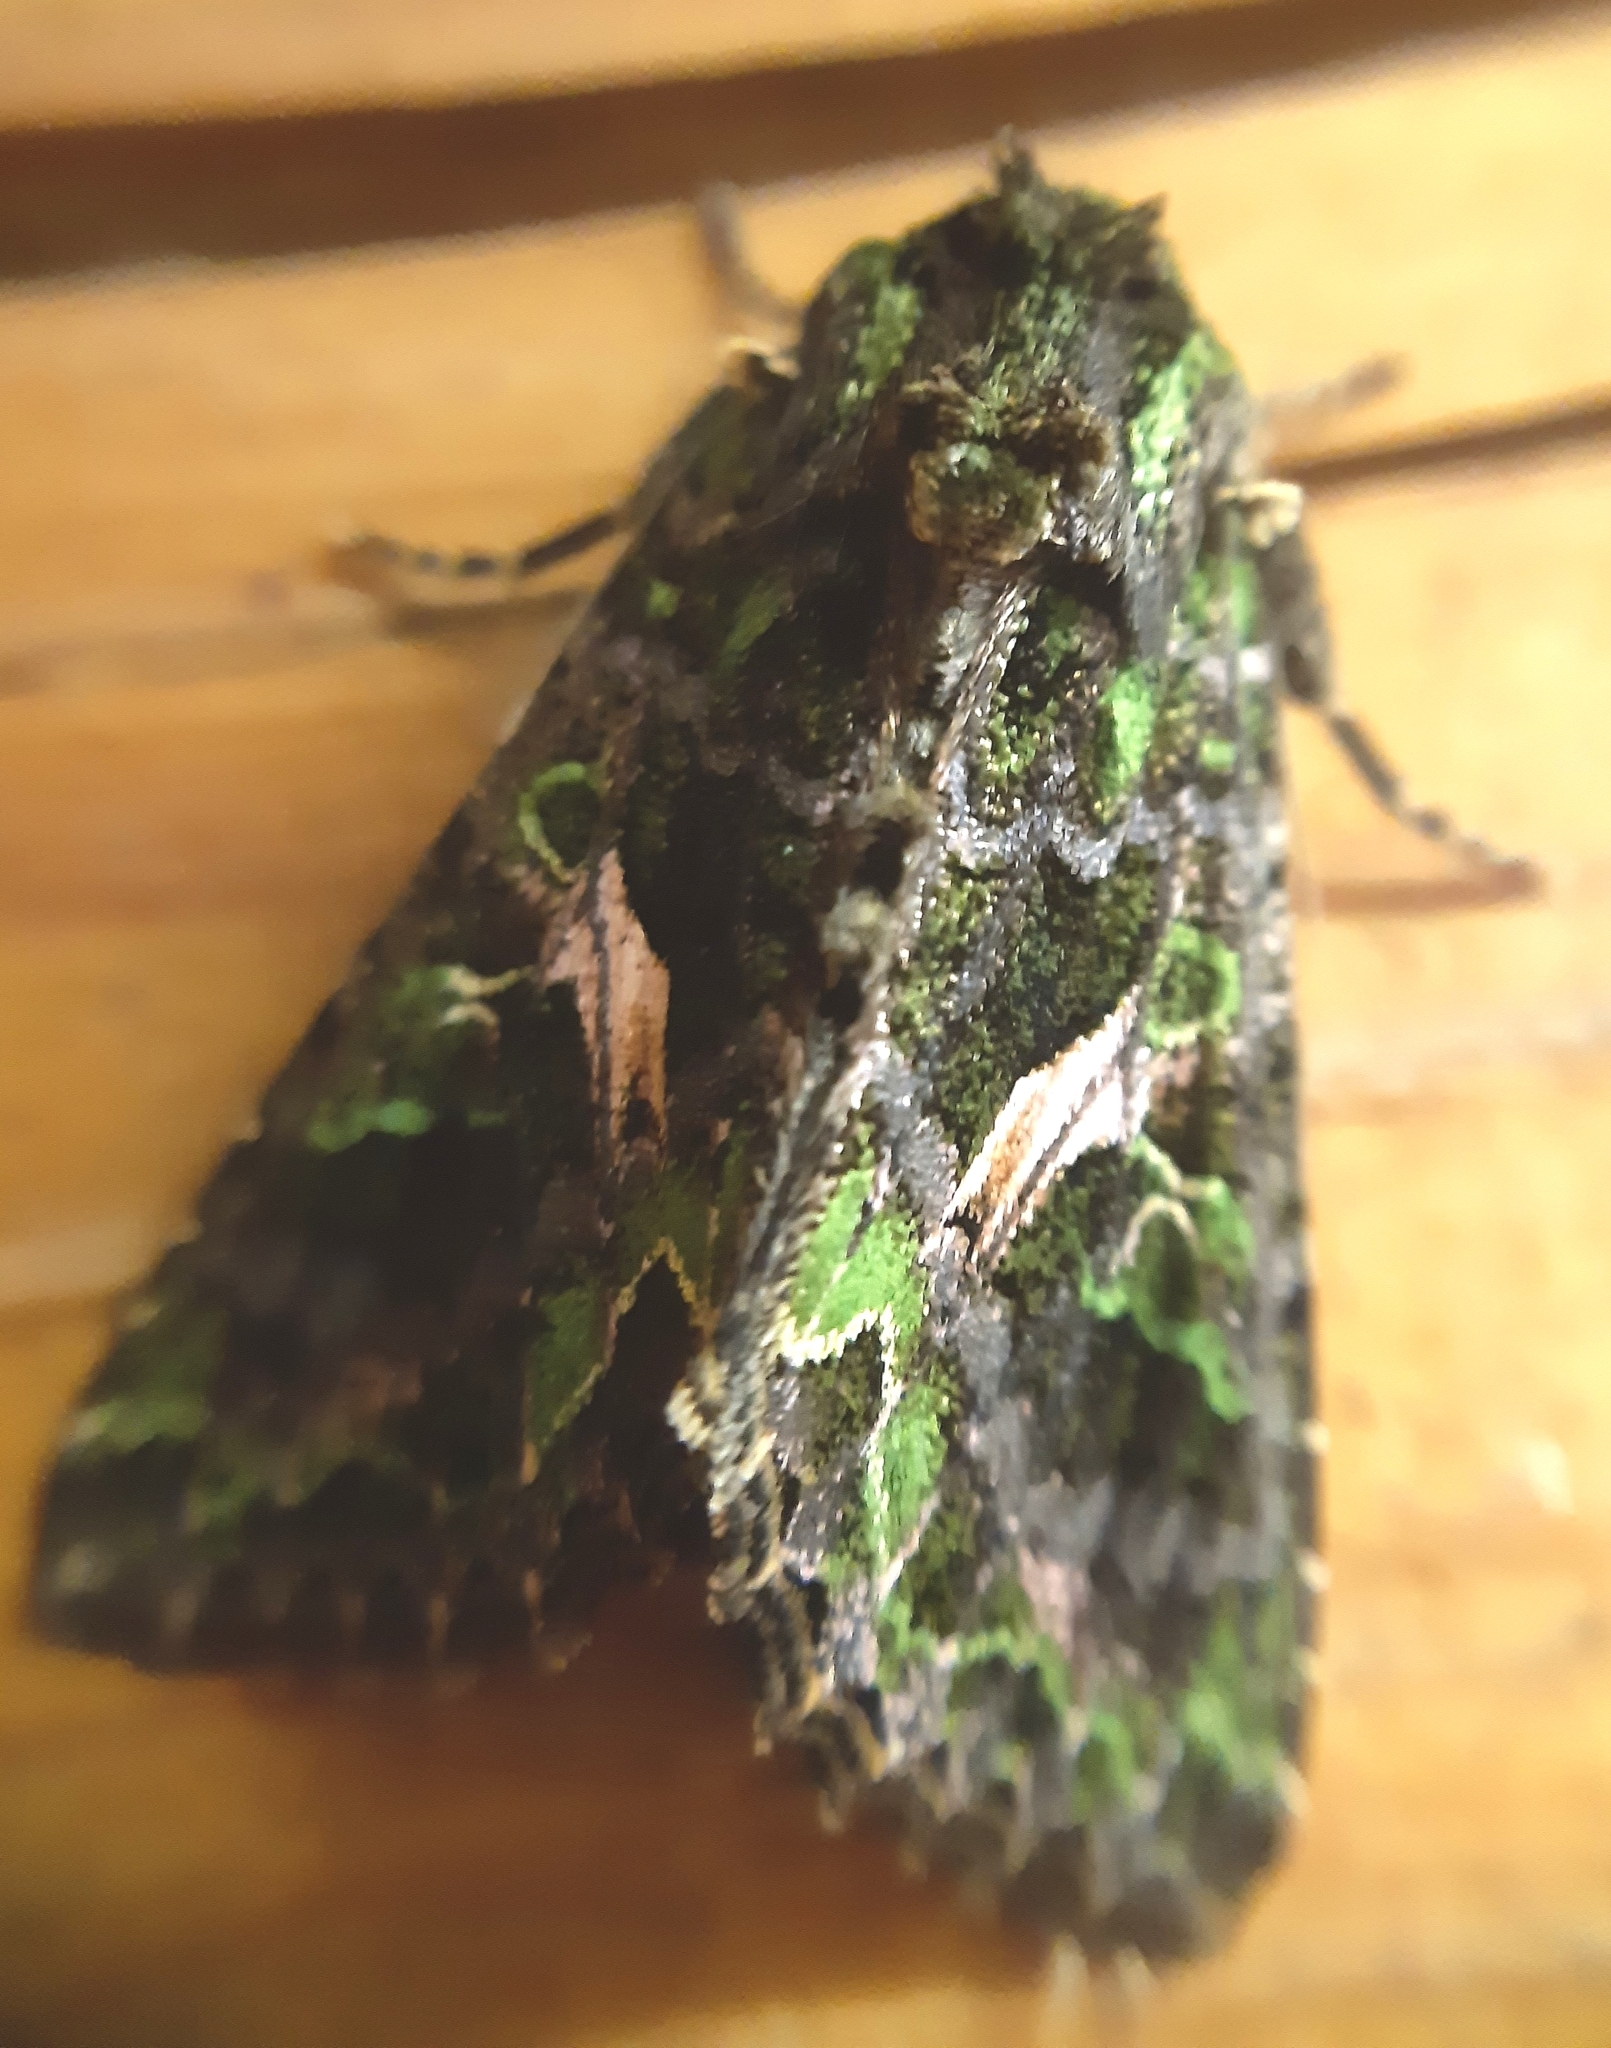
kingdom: Animalia
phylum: Arthropoda
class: Insecta
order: Lepidoptera
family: Noctuidae
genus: Trachea
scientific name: Trachea atriplicis
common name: Orache moth
